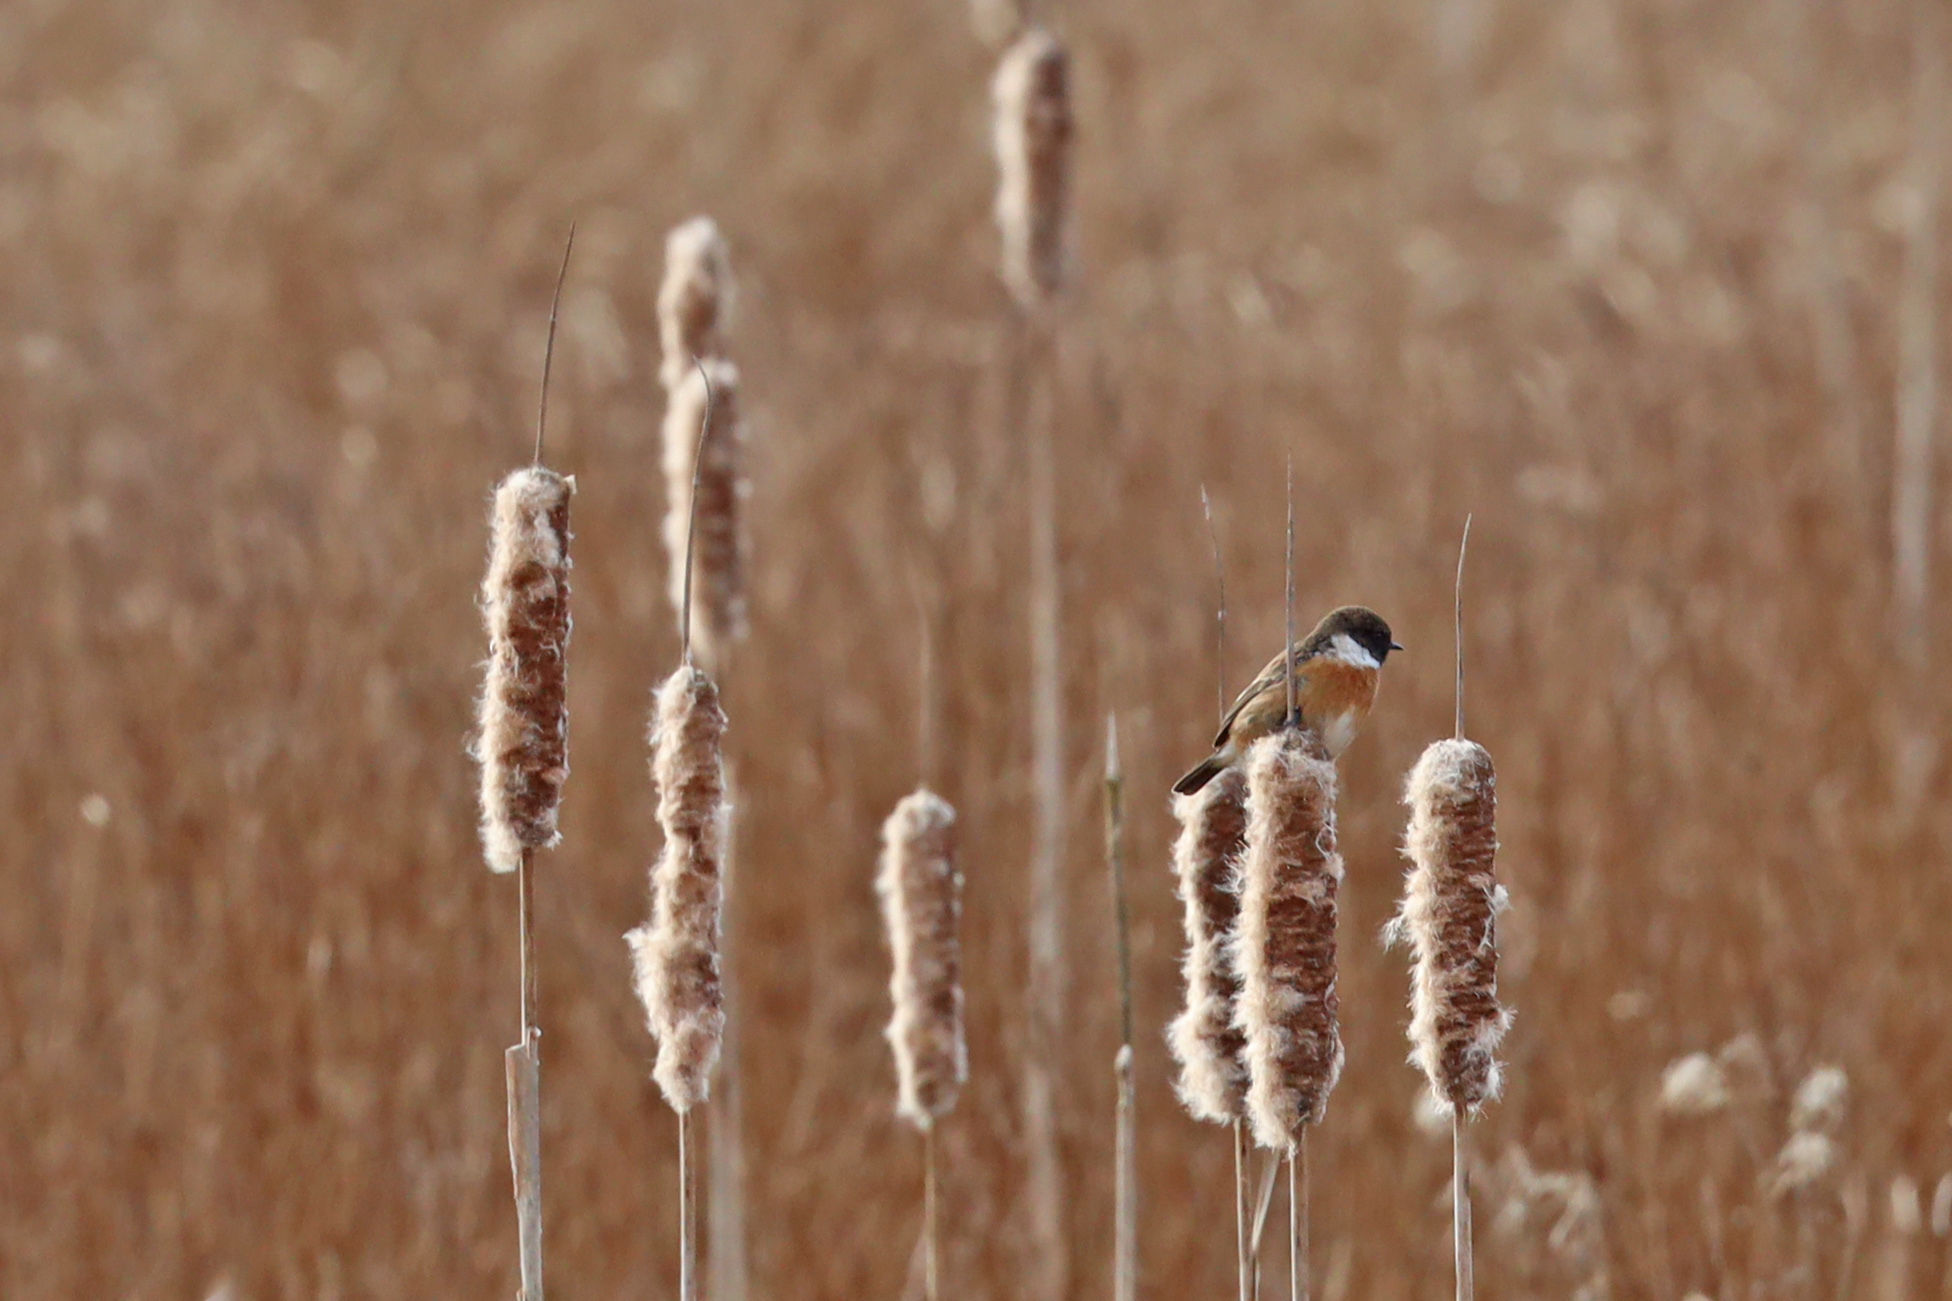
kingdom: Animalia
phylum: Chordata
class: Aves
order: Passeriformes
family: Muscicapidae
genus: Saxicola
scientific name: Saxicola rubicola
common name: European stonechat
